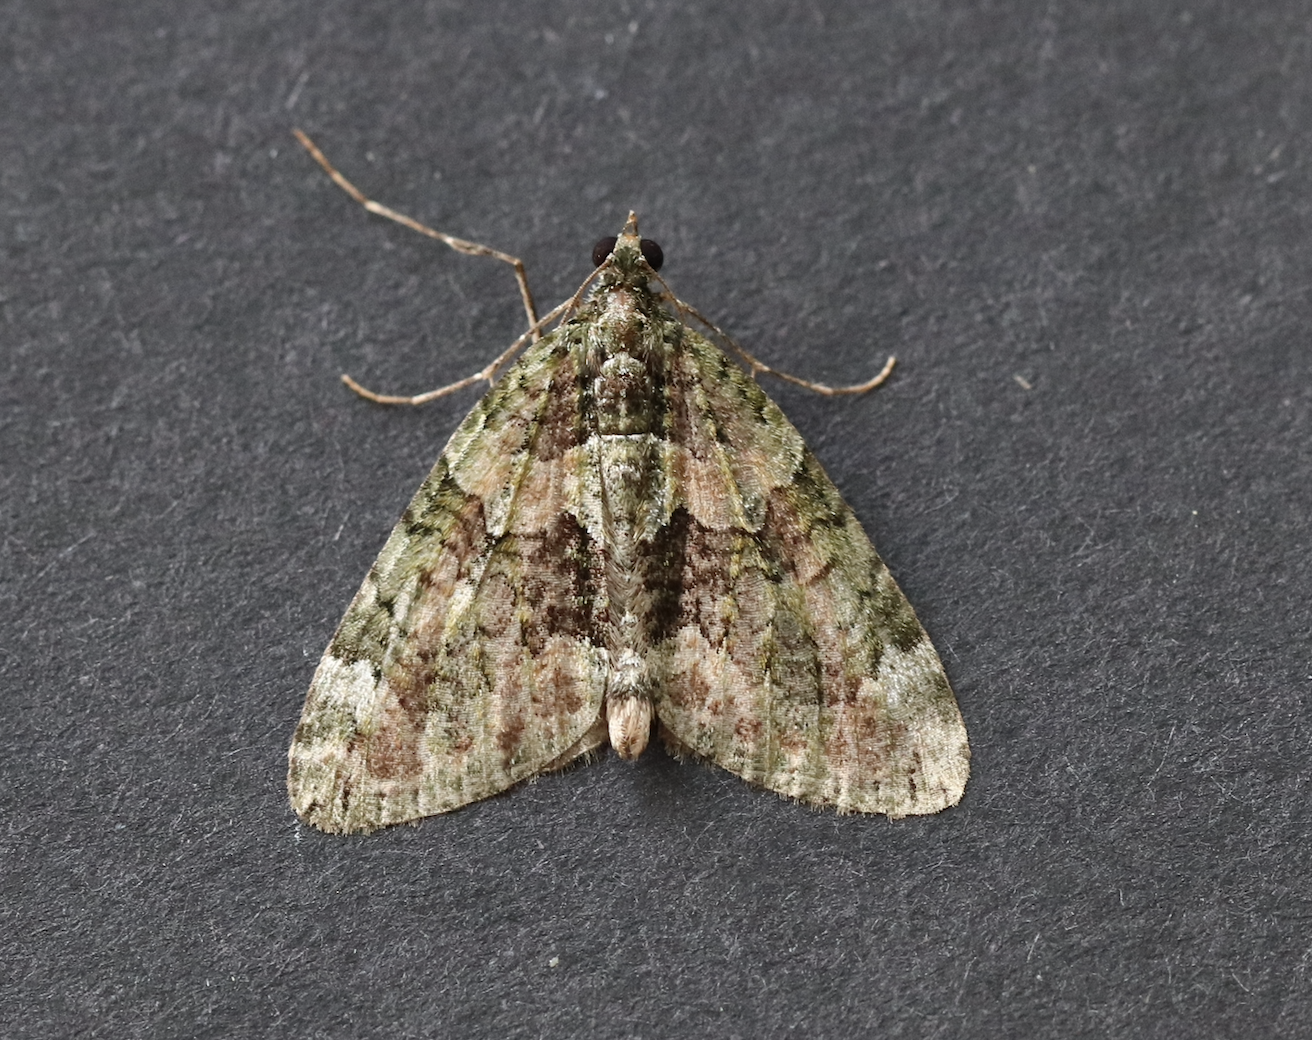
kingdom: Animalia
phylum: Arthropoda
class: Insecta
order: Lepidoptera
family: Geometridae
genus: Chloroclysta
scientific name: Chloroclysta siterata
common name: Red-green carpet
